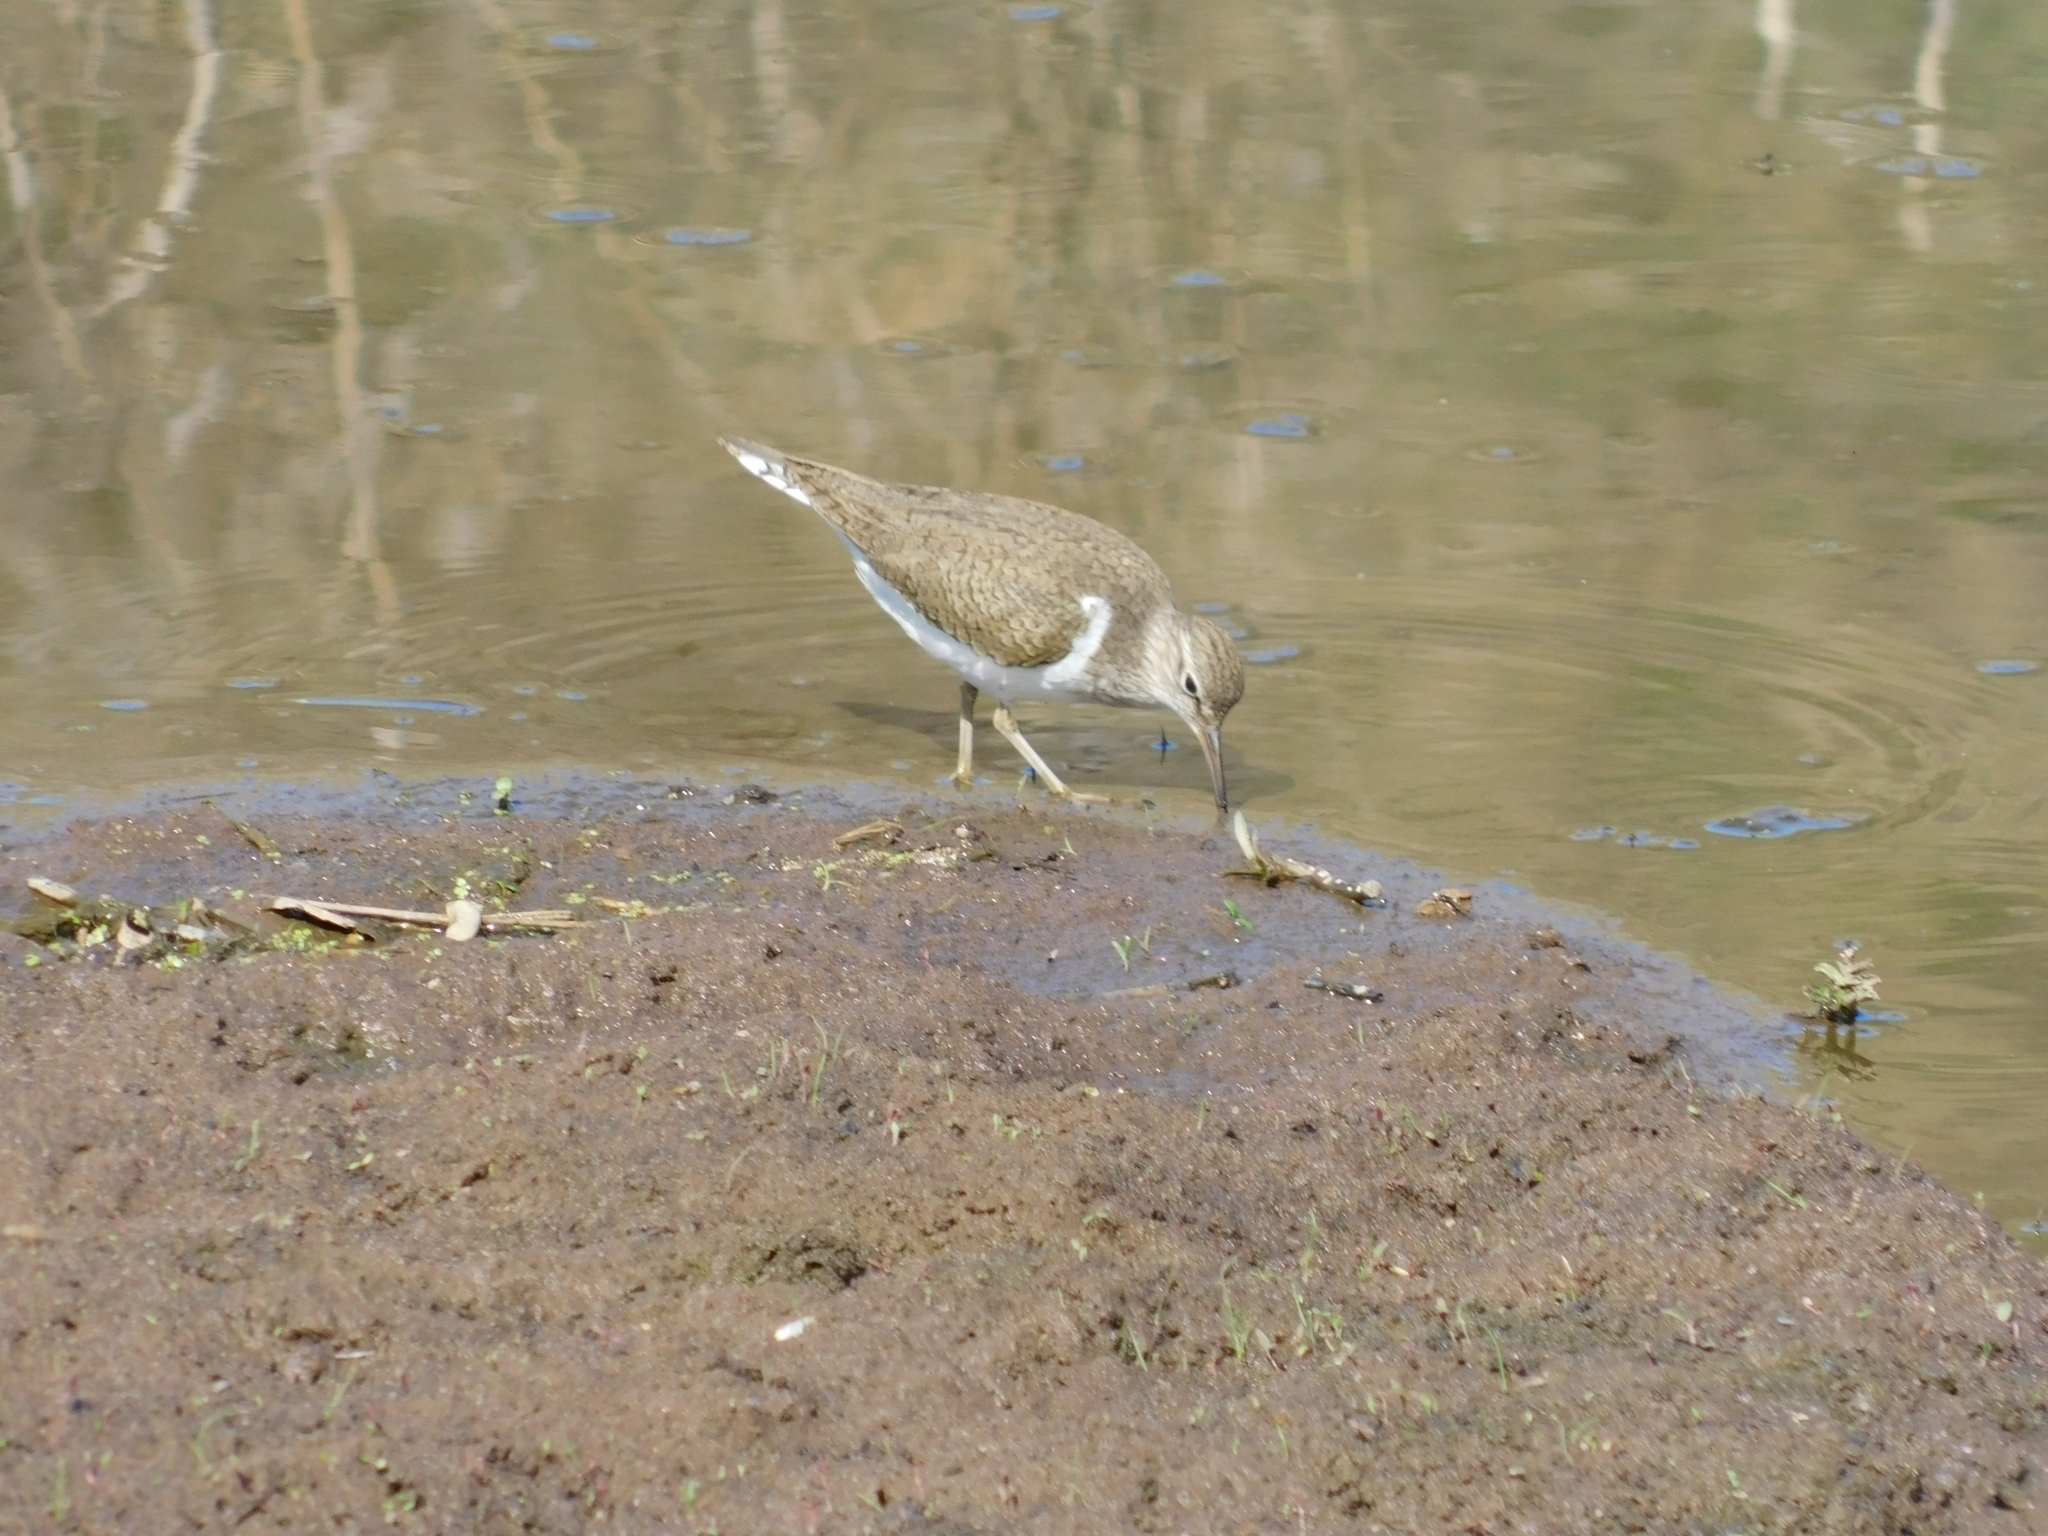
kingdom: Animalia
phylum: Chordata
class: Aves
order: Charadriiformes
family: Scolopacidae
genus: Actitis
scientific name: Actitis hypoleucos
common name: Common sandpiper
